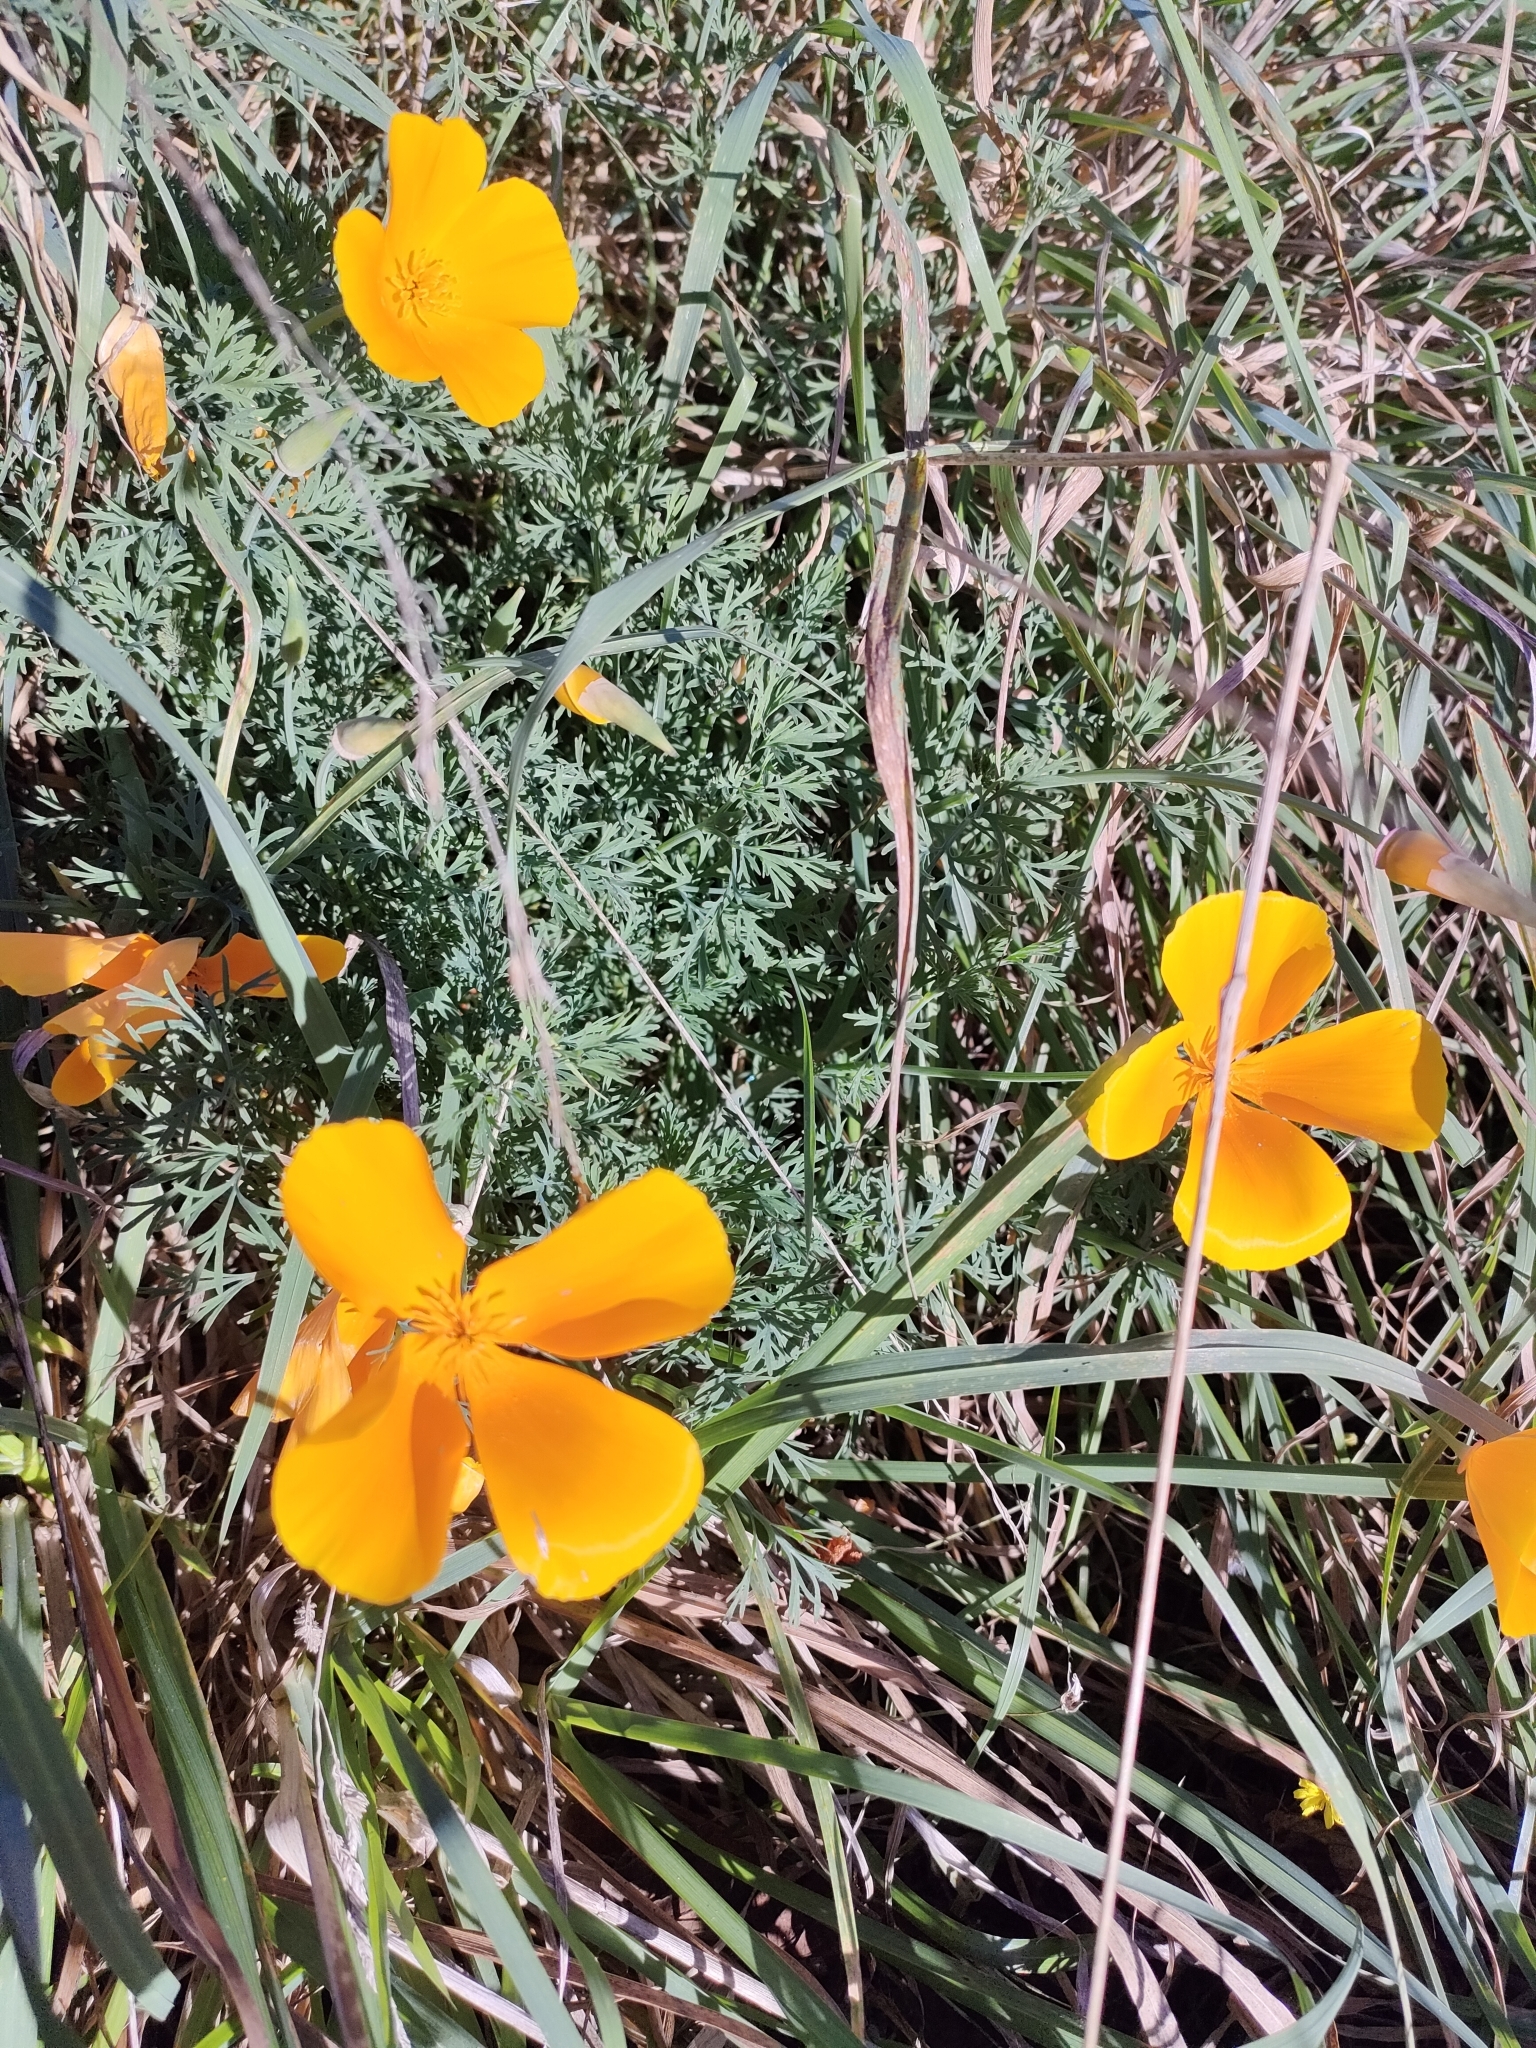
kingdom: Plantae
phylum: Tracheophyta
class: Magnoliopsida
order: Ranunculales
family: Papaveraceae
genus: Eschscholzia
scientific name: Eschscholzia californica
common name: California poppy
